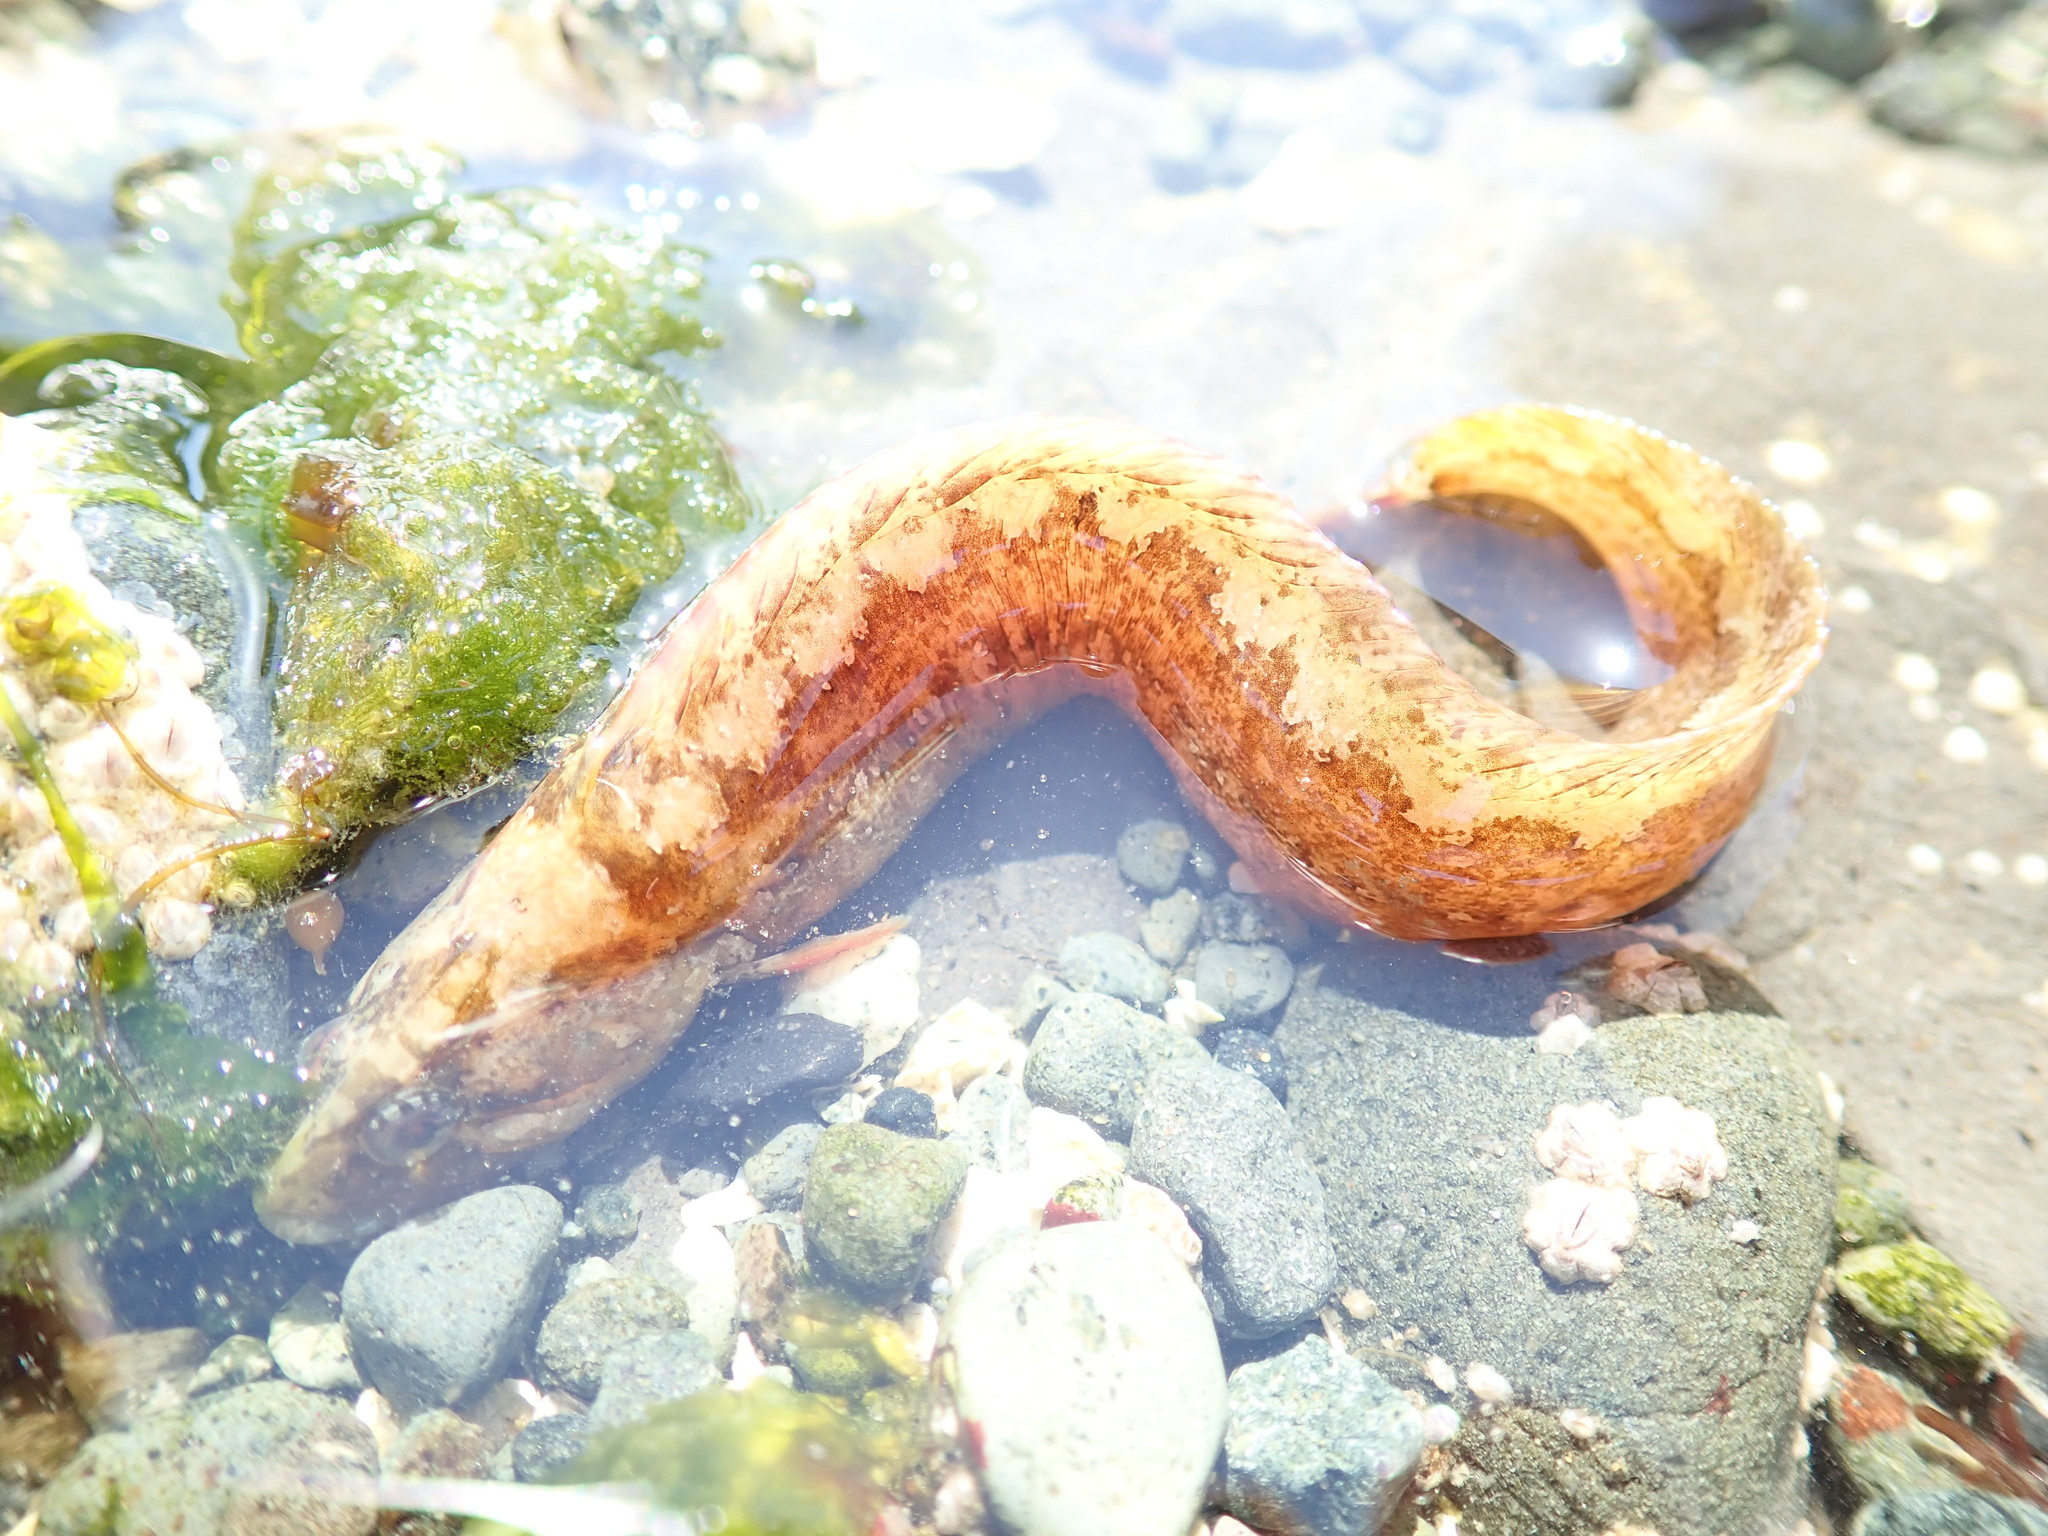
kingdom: Animalia
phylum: Chordata
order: Perciformes
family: Stichaeidae
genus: Anoplarchus
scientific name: Anoplarchus purpurescens
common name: High cockscomb
